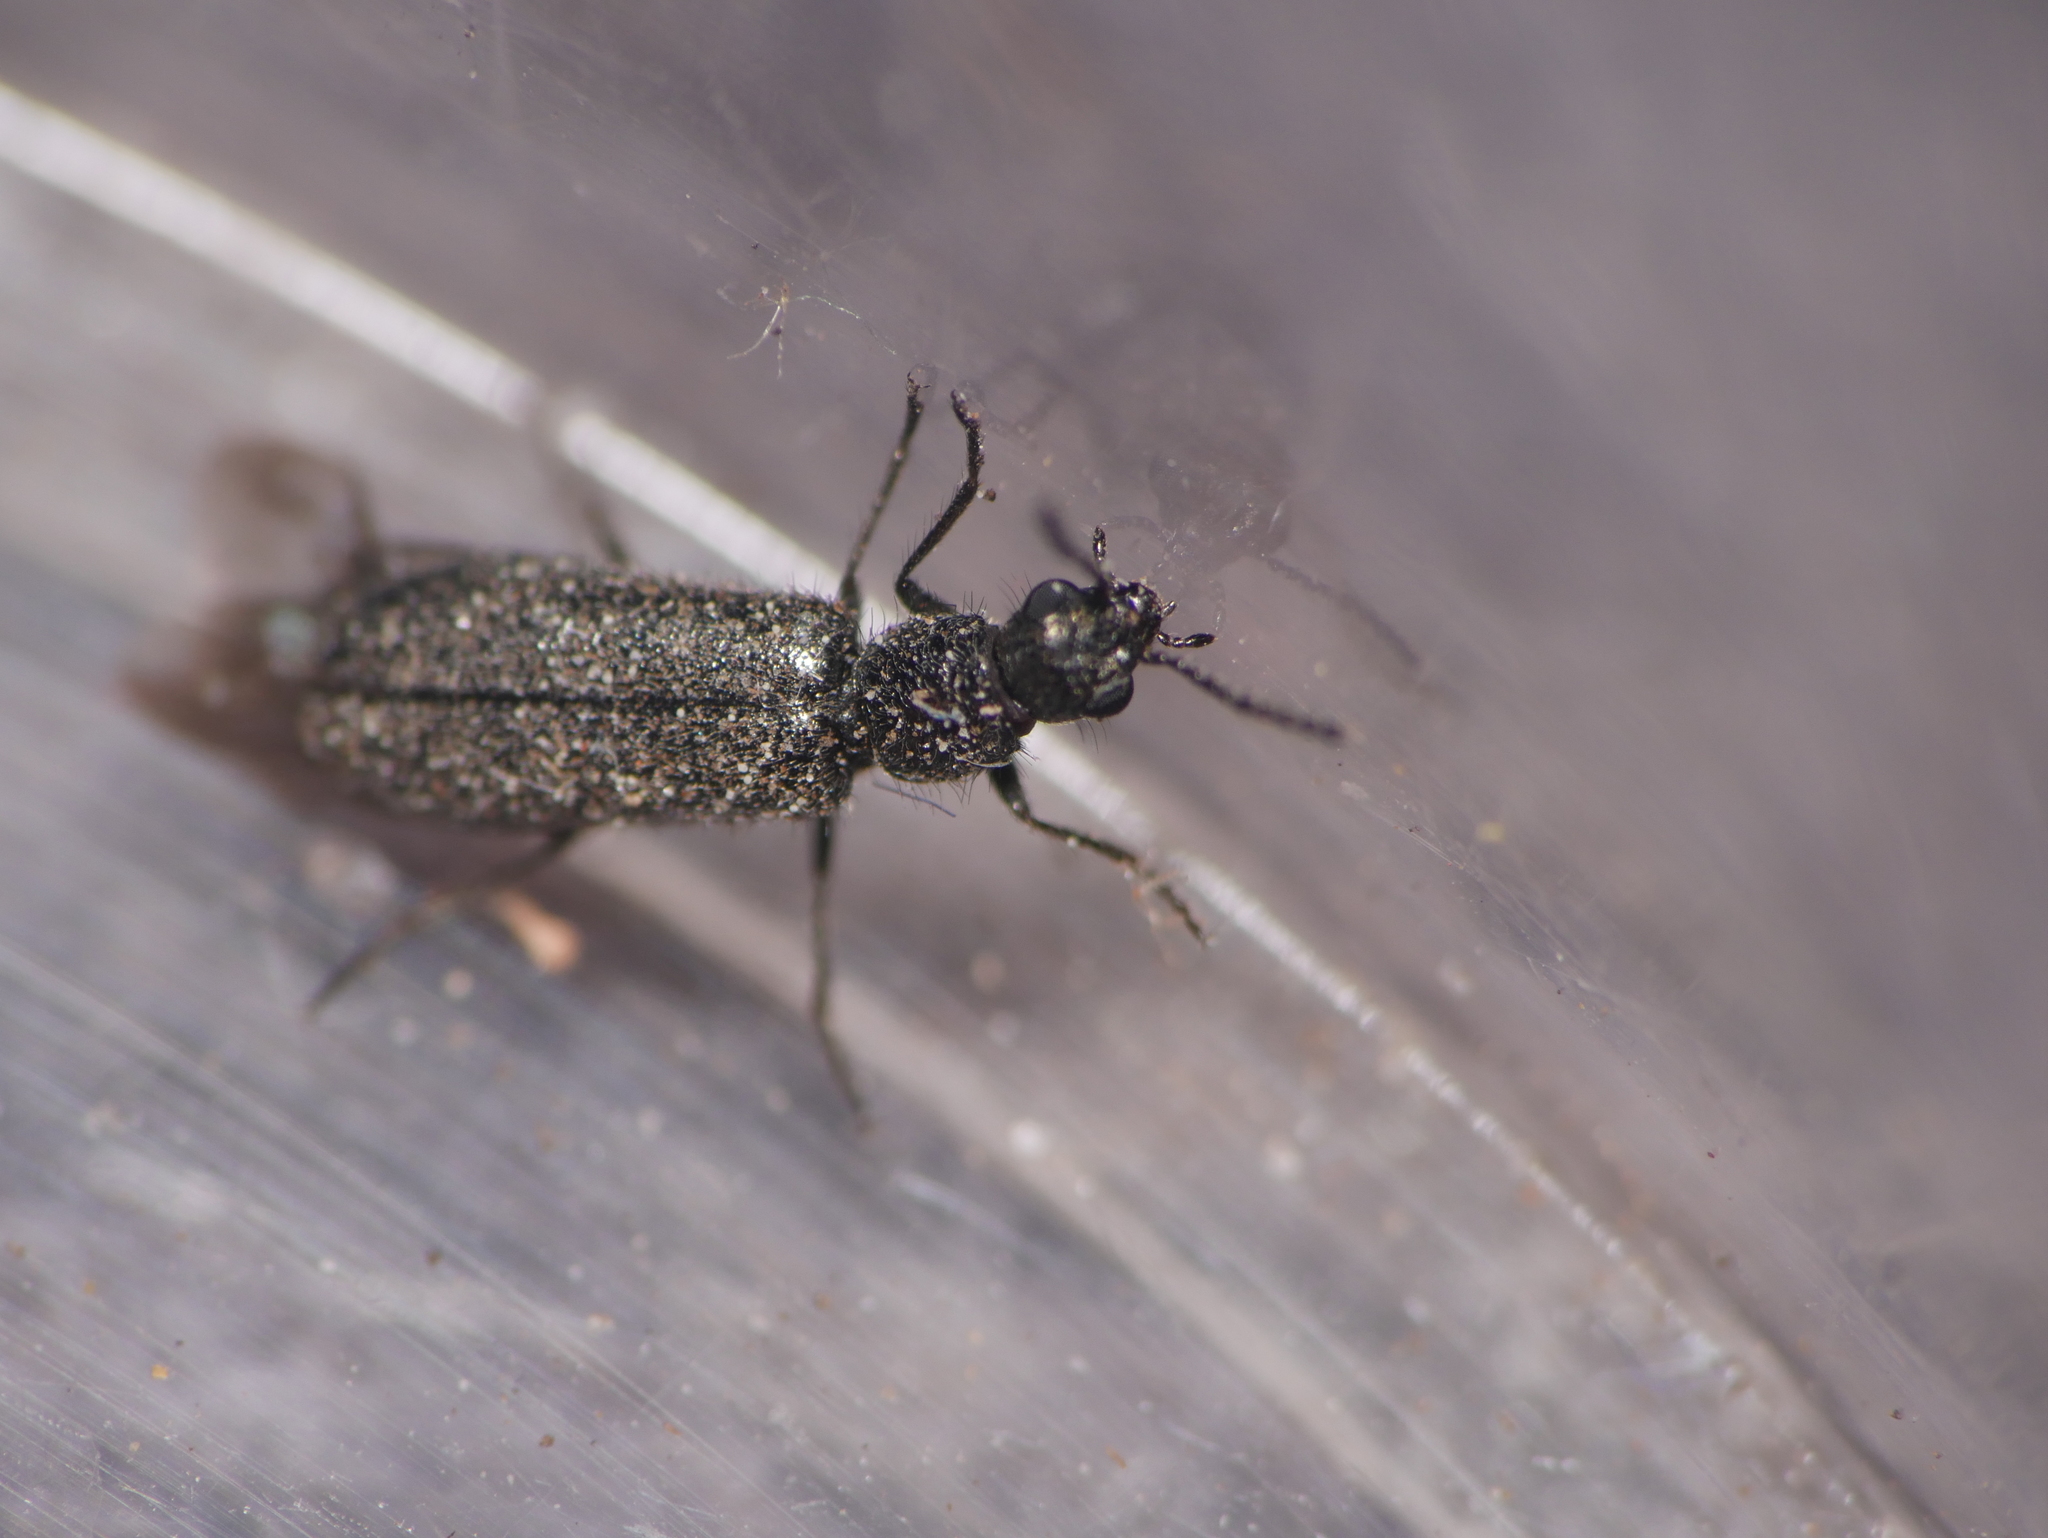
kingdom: Animalia
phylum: Arthropoda
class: Insecta
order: Coleoptera
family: Melyridae
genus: Dasytes
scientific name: Dasytes aeratus
